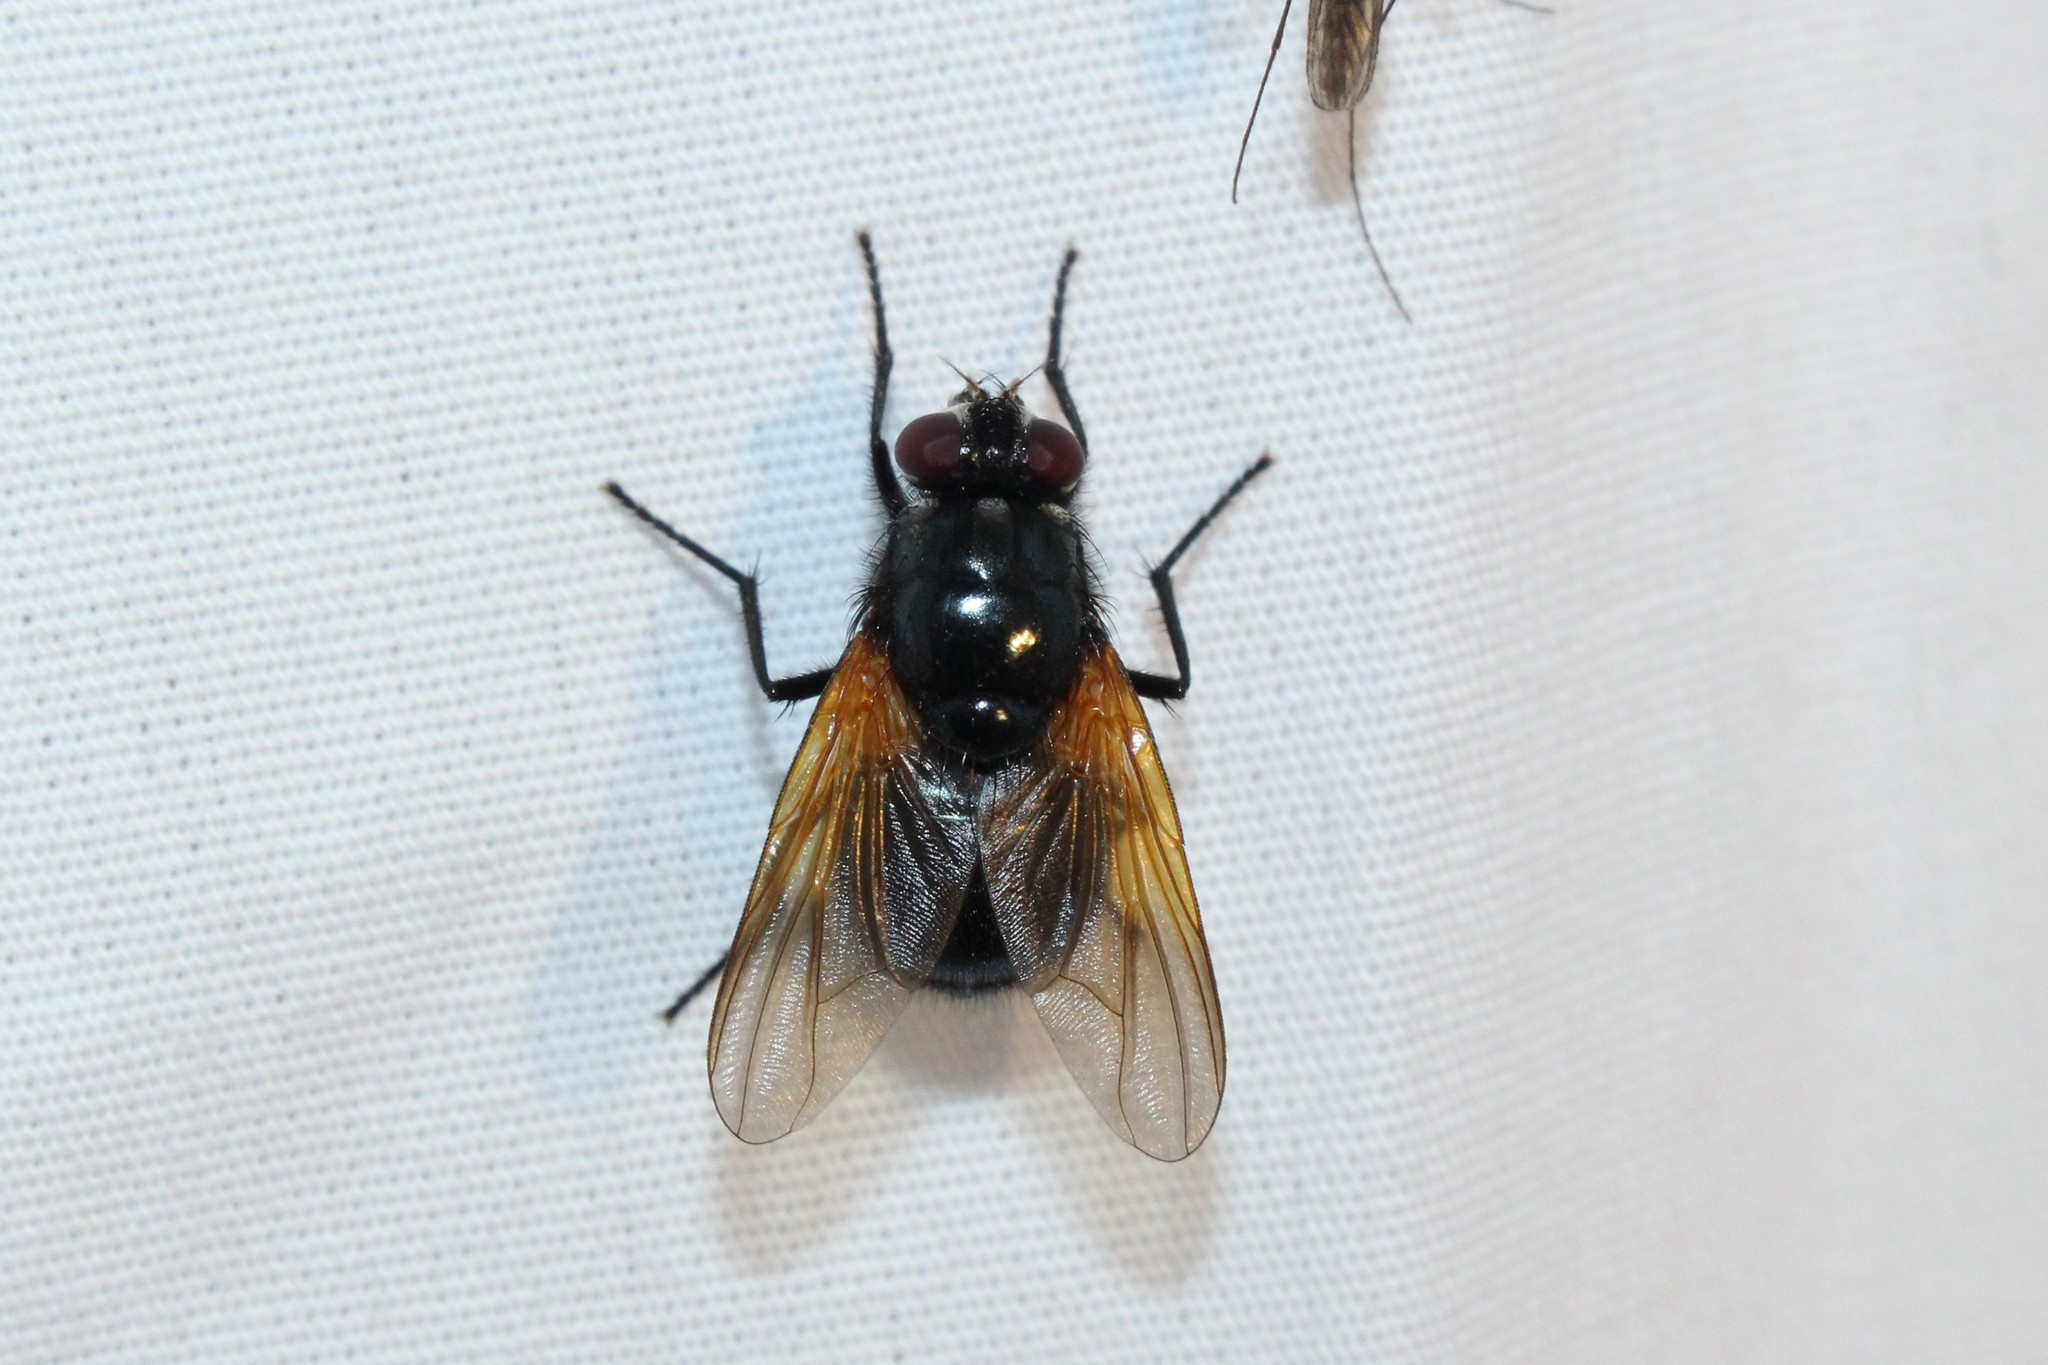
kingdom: Animalia
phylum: Arthropoda
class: Insecta
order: Diptera
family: Muscidae
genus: Mesembrina
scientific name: Mesembrina latreillii
